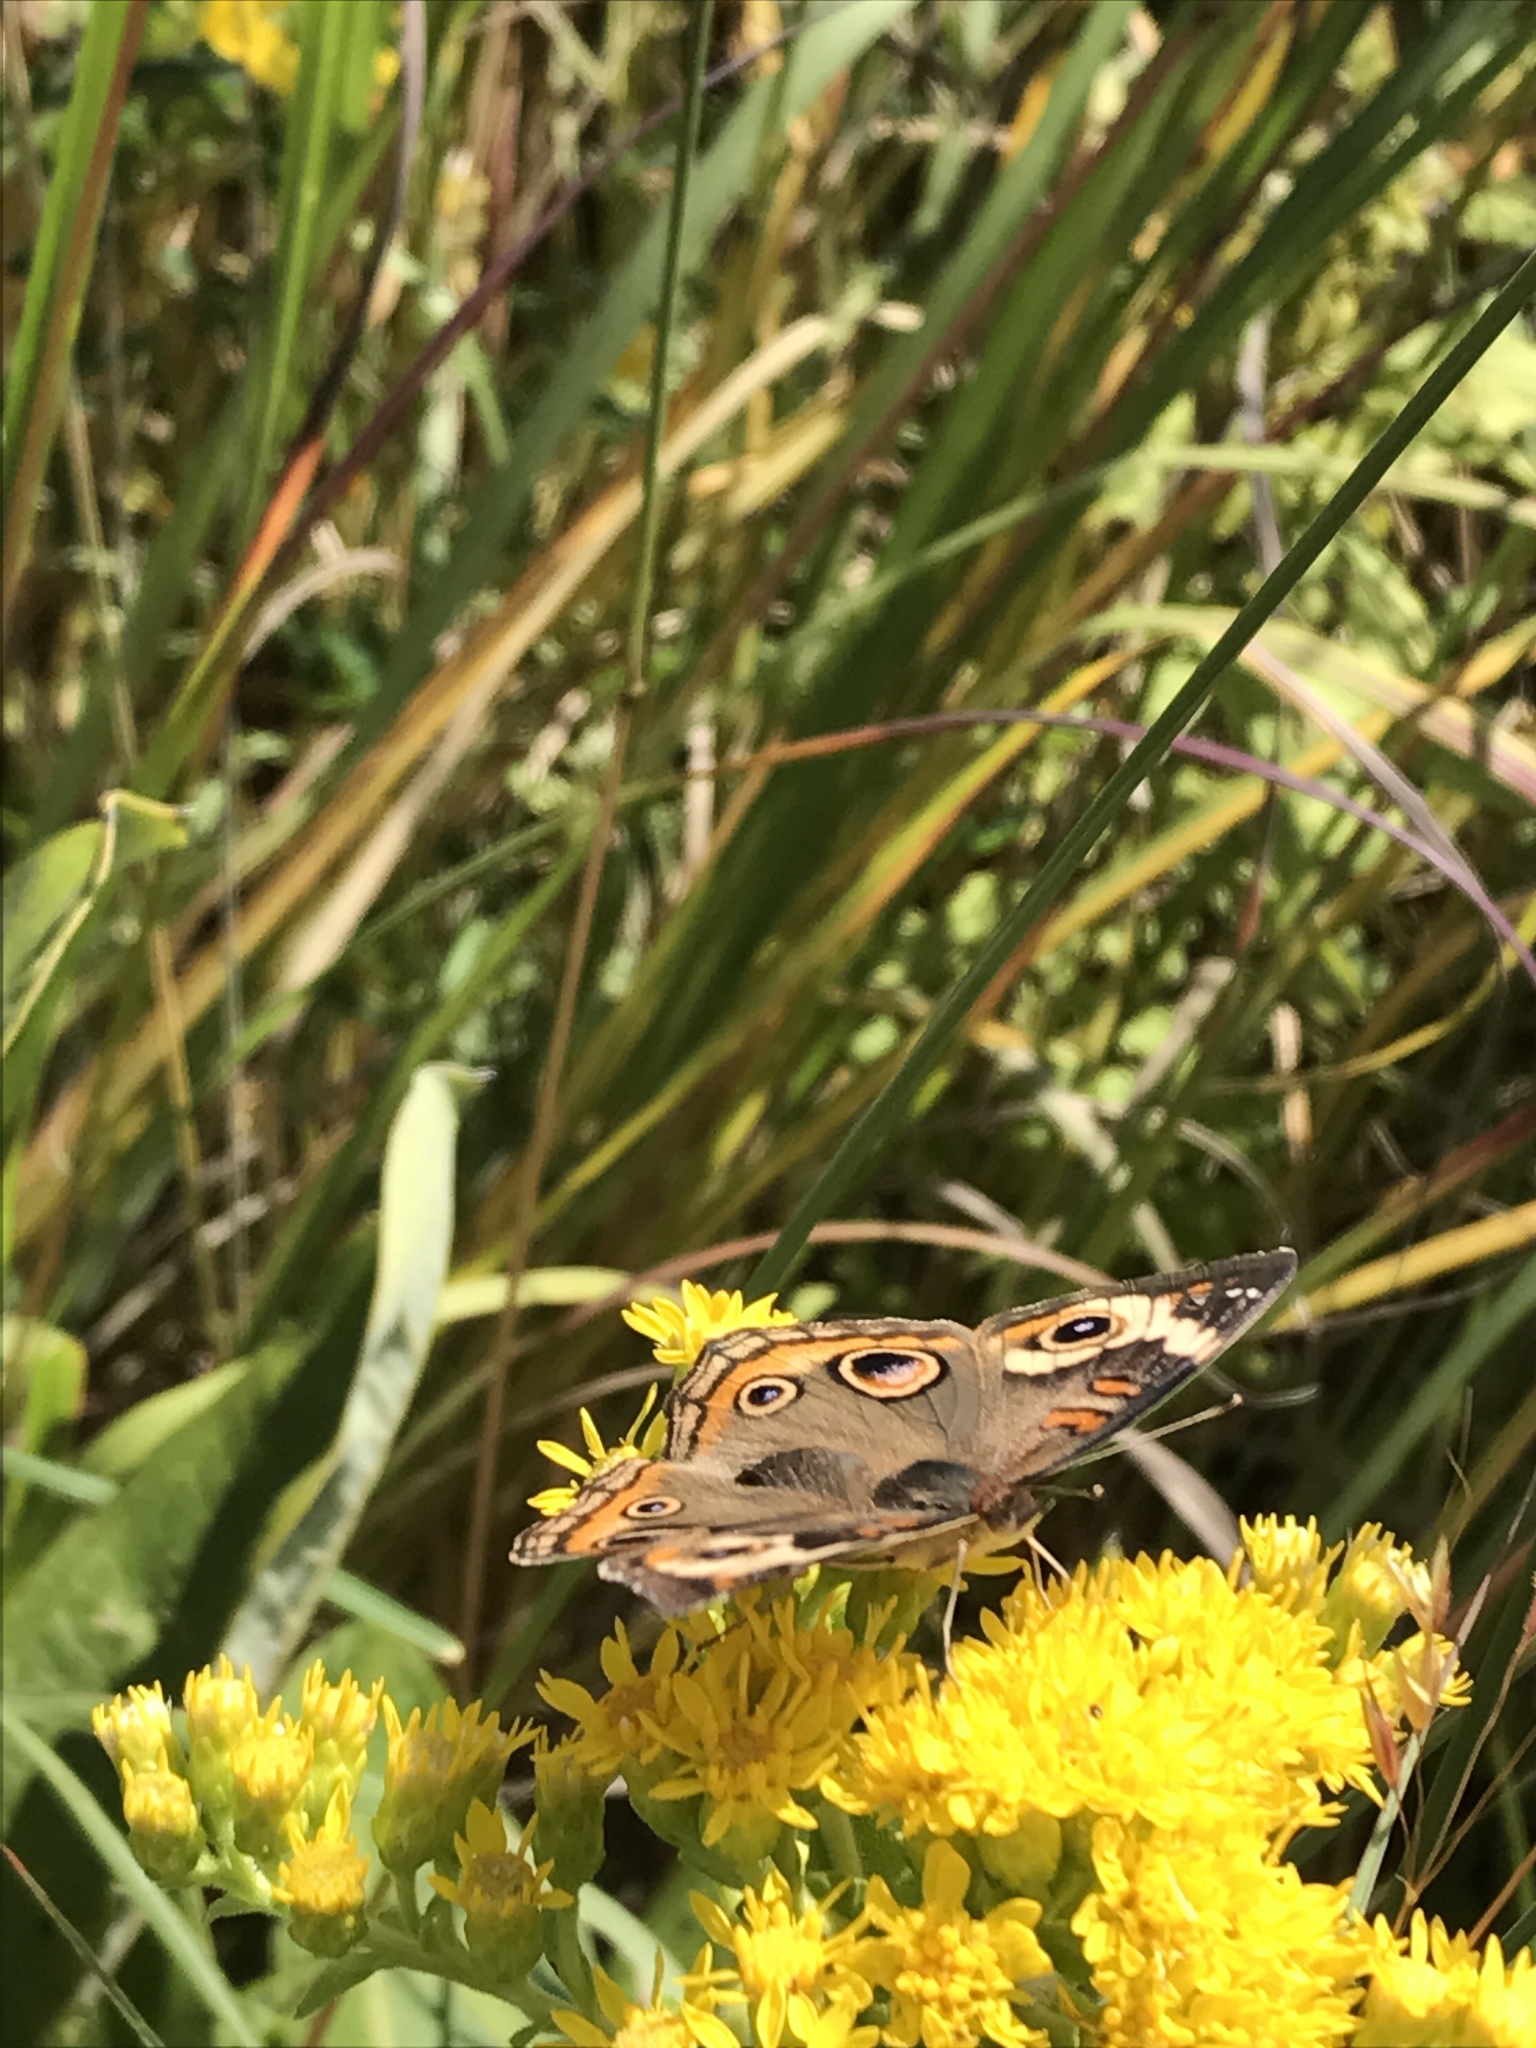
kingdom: Animalia
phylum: Arthropoda
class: Insecta
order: Lepidoptera
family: Nymphalidae
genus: Junonia
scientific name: Junonia coenia
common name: Common buckeye
